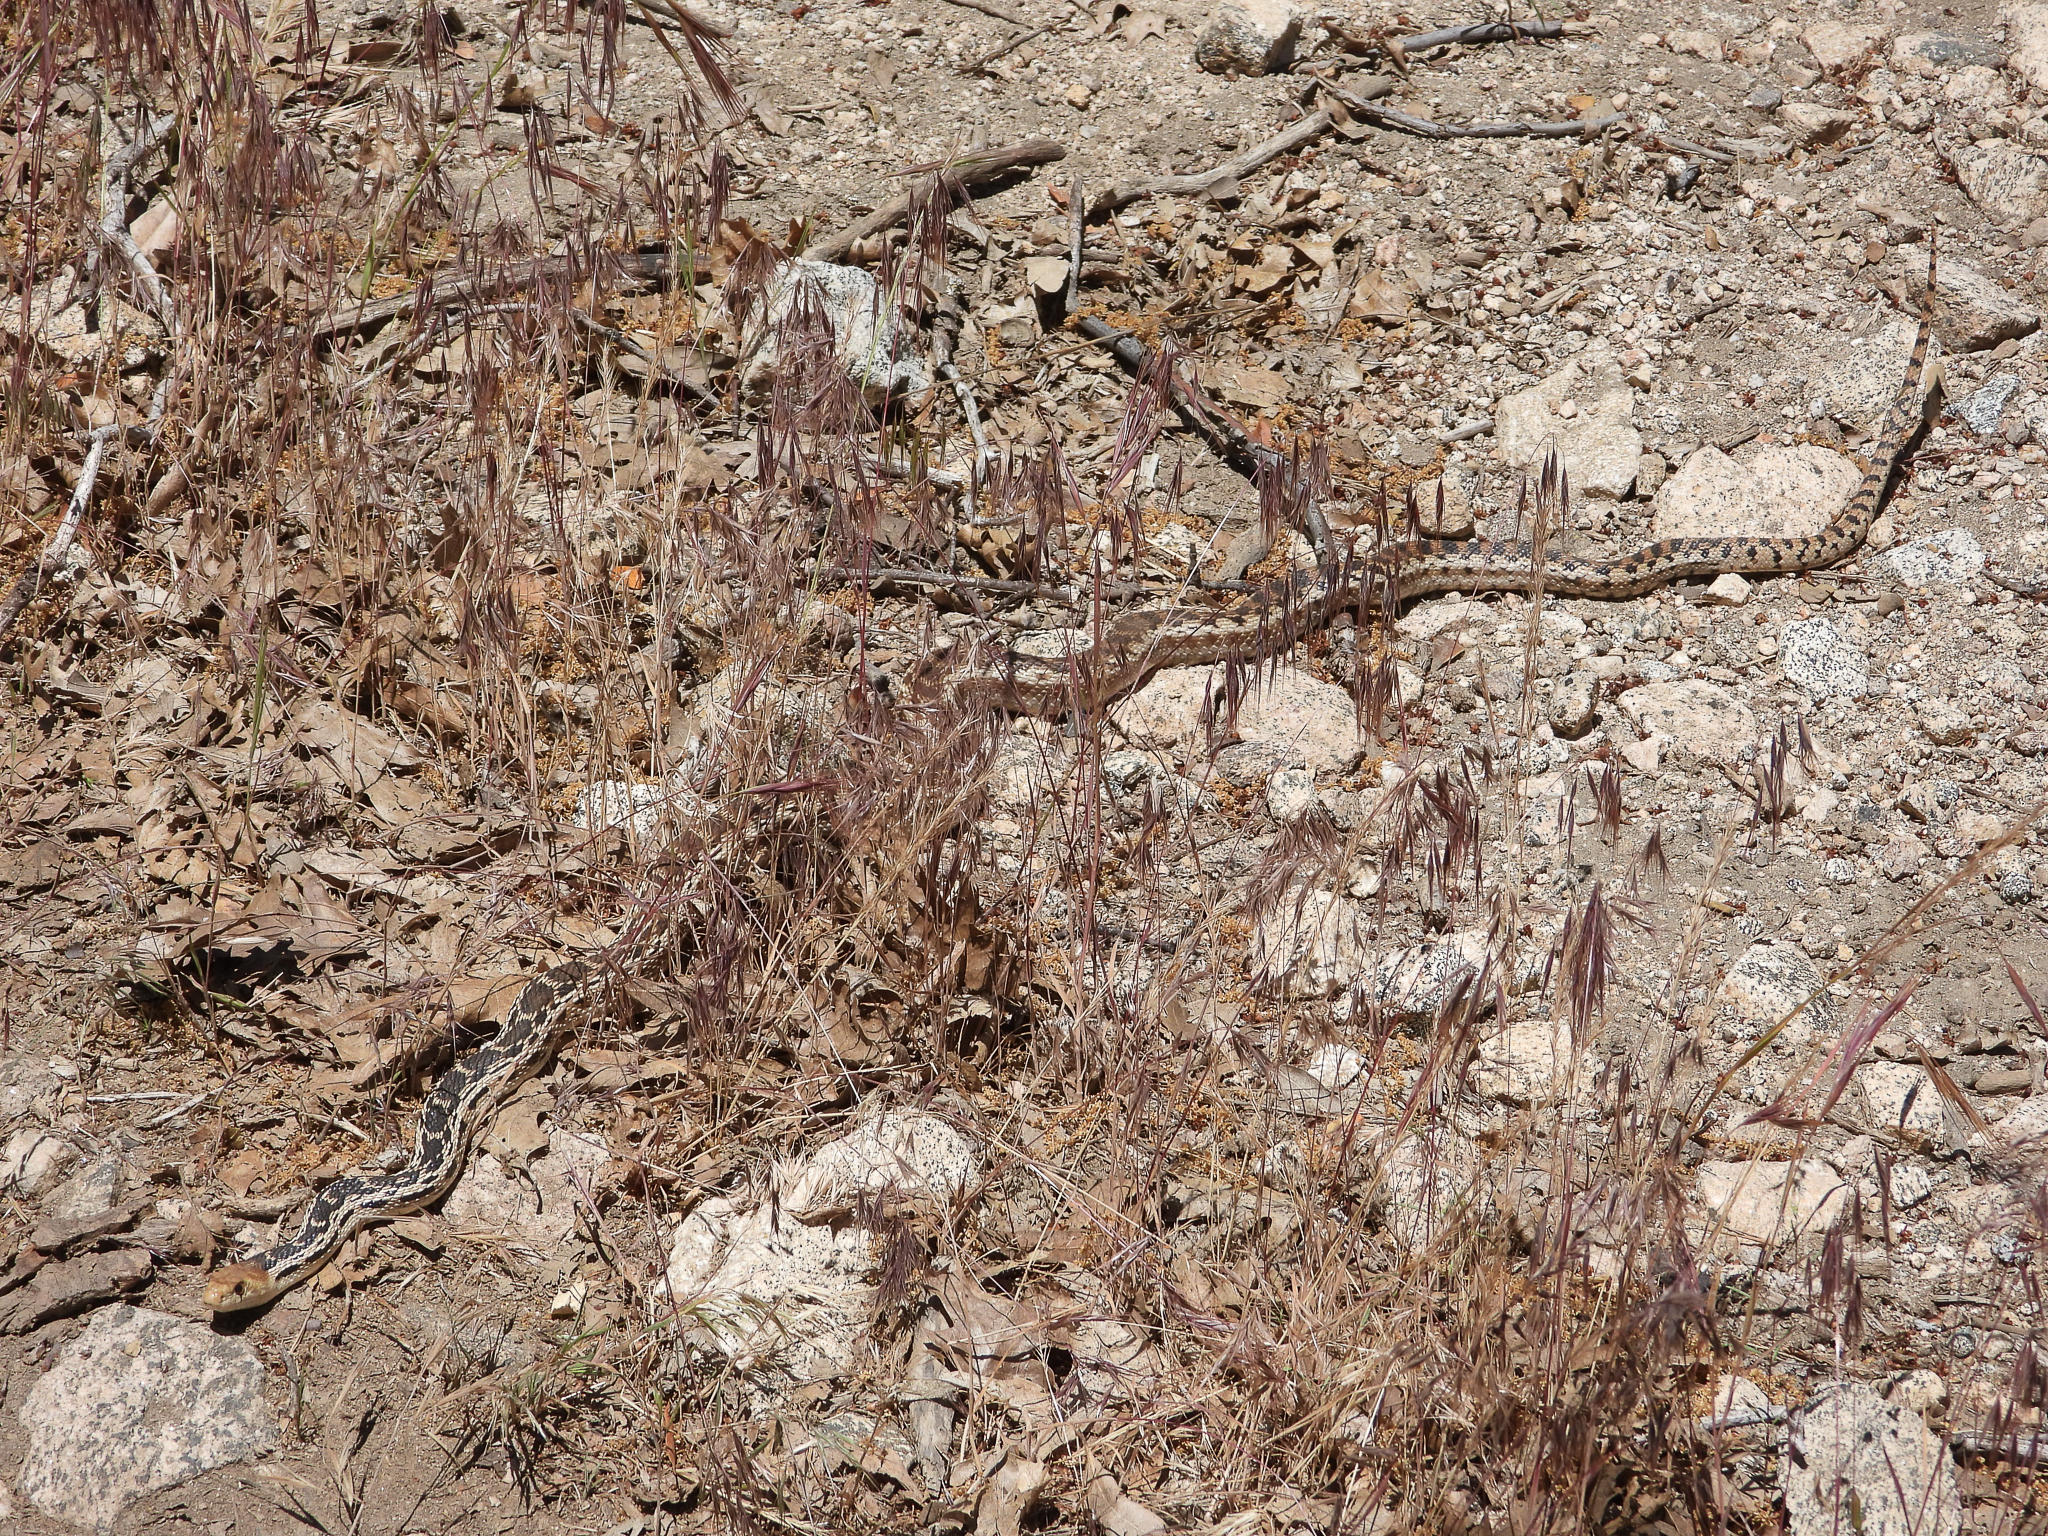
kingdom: Animalia
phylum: Chordata
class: Squamata
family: Colubridae
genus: Pituophis
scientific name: Pituophis catenifer
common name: Gopher snake
